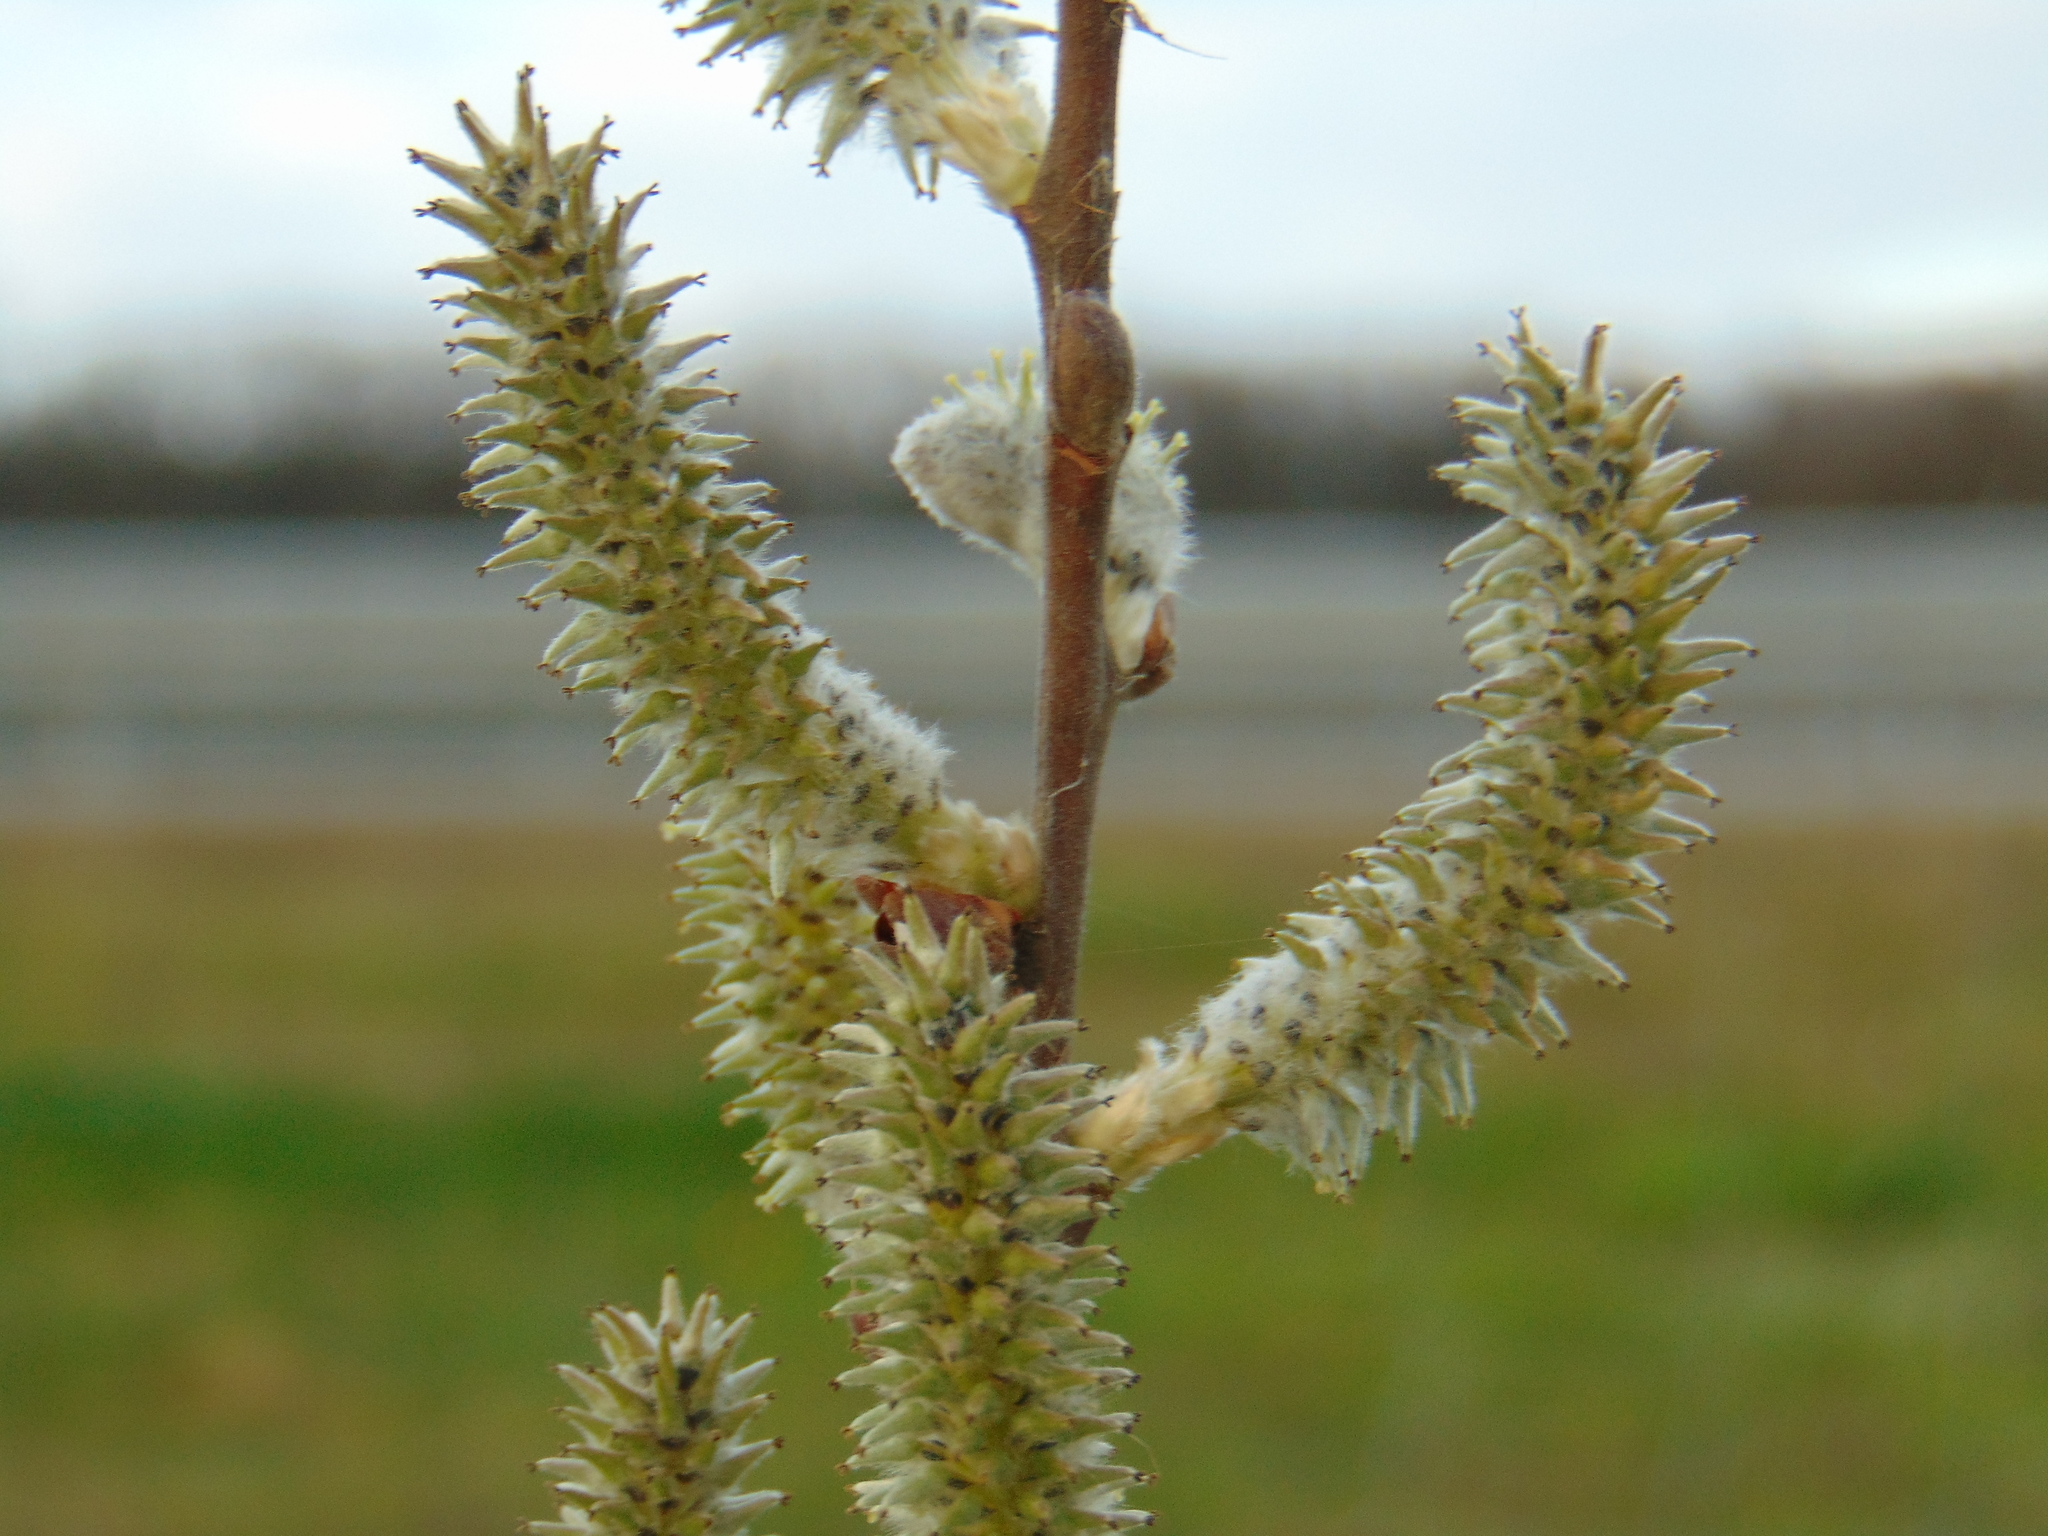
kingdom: Plantae
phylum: Tracheophyta
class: Magnoliopsida
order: Malpighiales
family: Salicaceae
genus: Salix
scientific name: Salix caprea
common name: Goat willow
